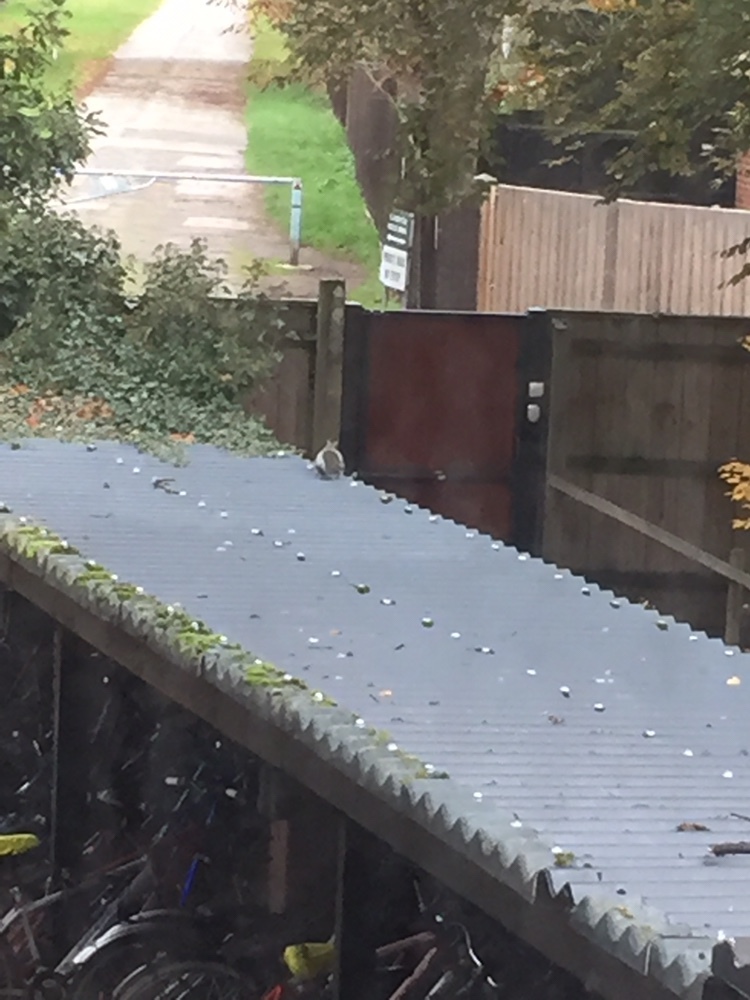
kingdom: Animalia
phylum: Chordata
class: Mammalia
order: Rodentia
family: Sciuridae
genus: Sciurus
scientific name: Sciurus carolinensis
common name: Eastern gray squirrel
